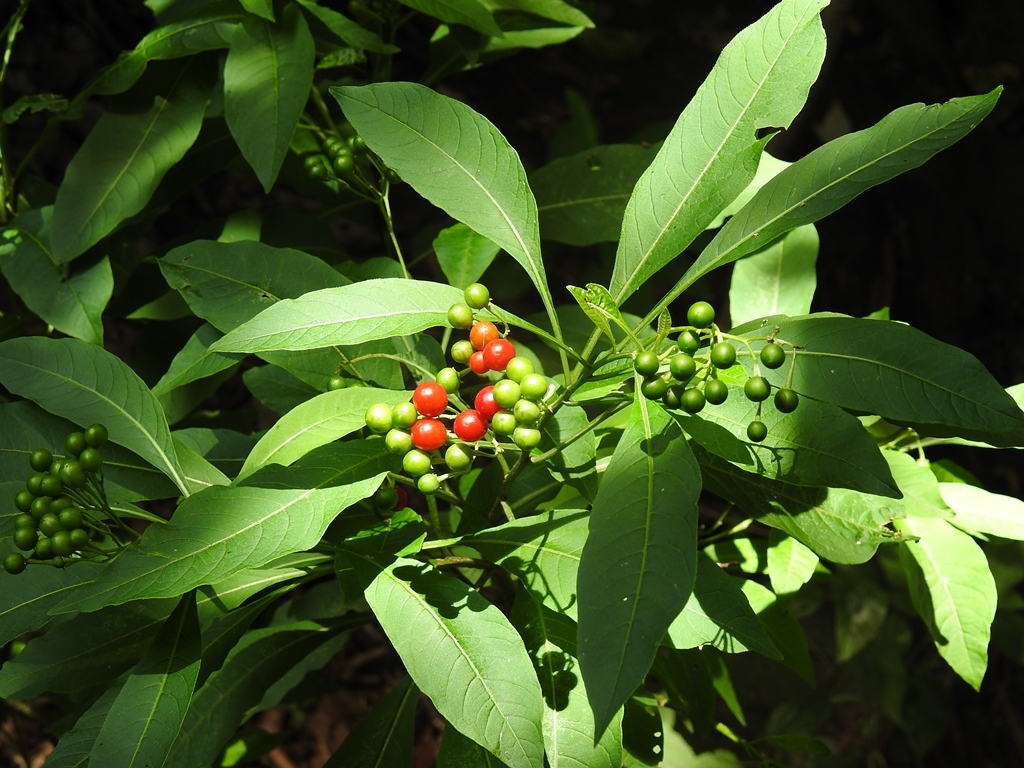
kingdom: Plantae
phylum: Tracheophyta
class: Magnoliopsida
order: Solanales
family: Solanaceae
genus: Solanum
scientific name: Solanum pubigerum
